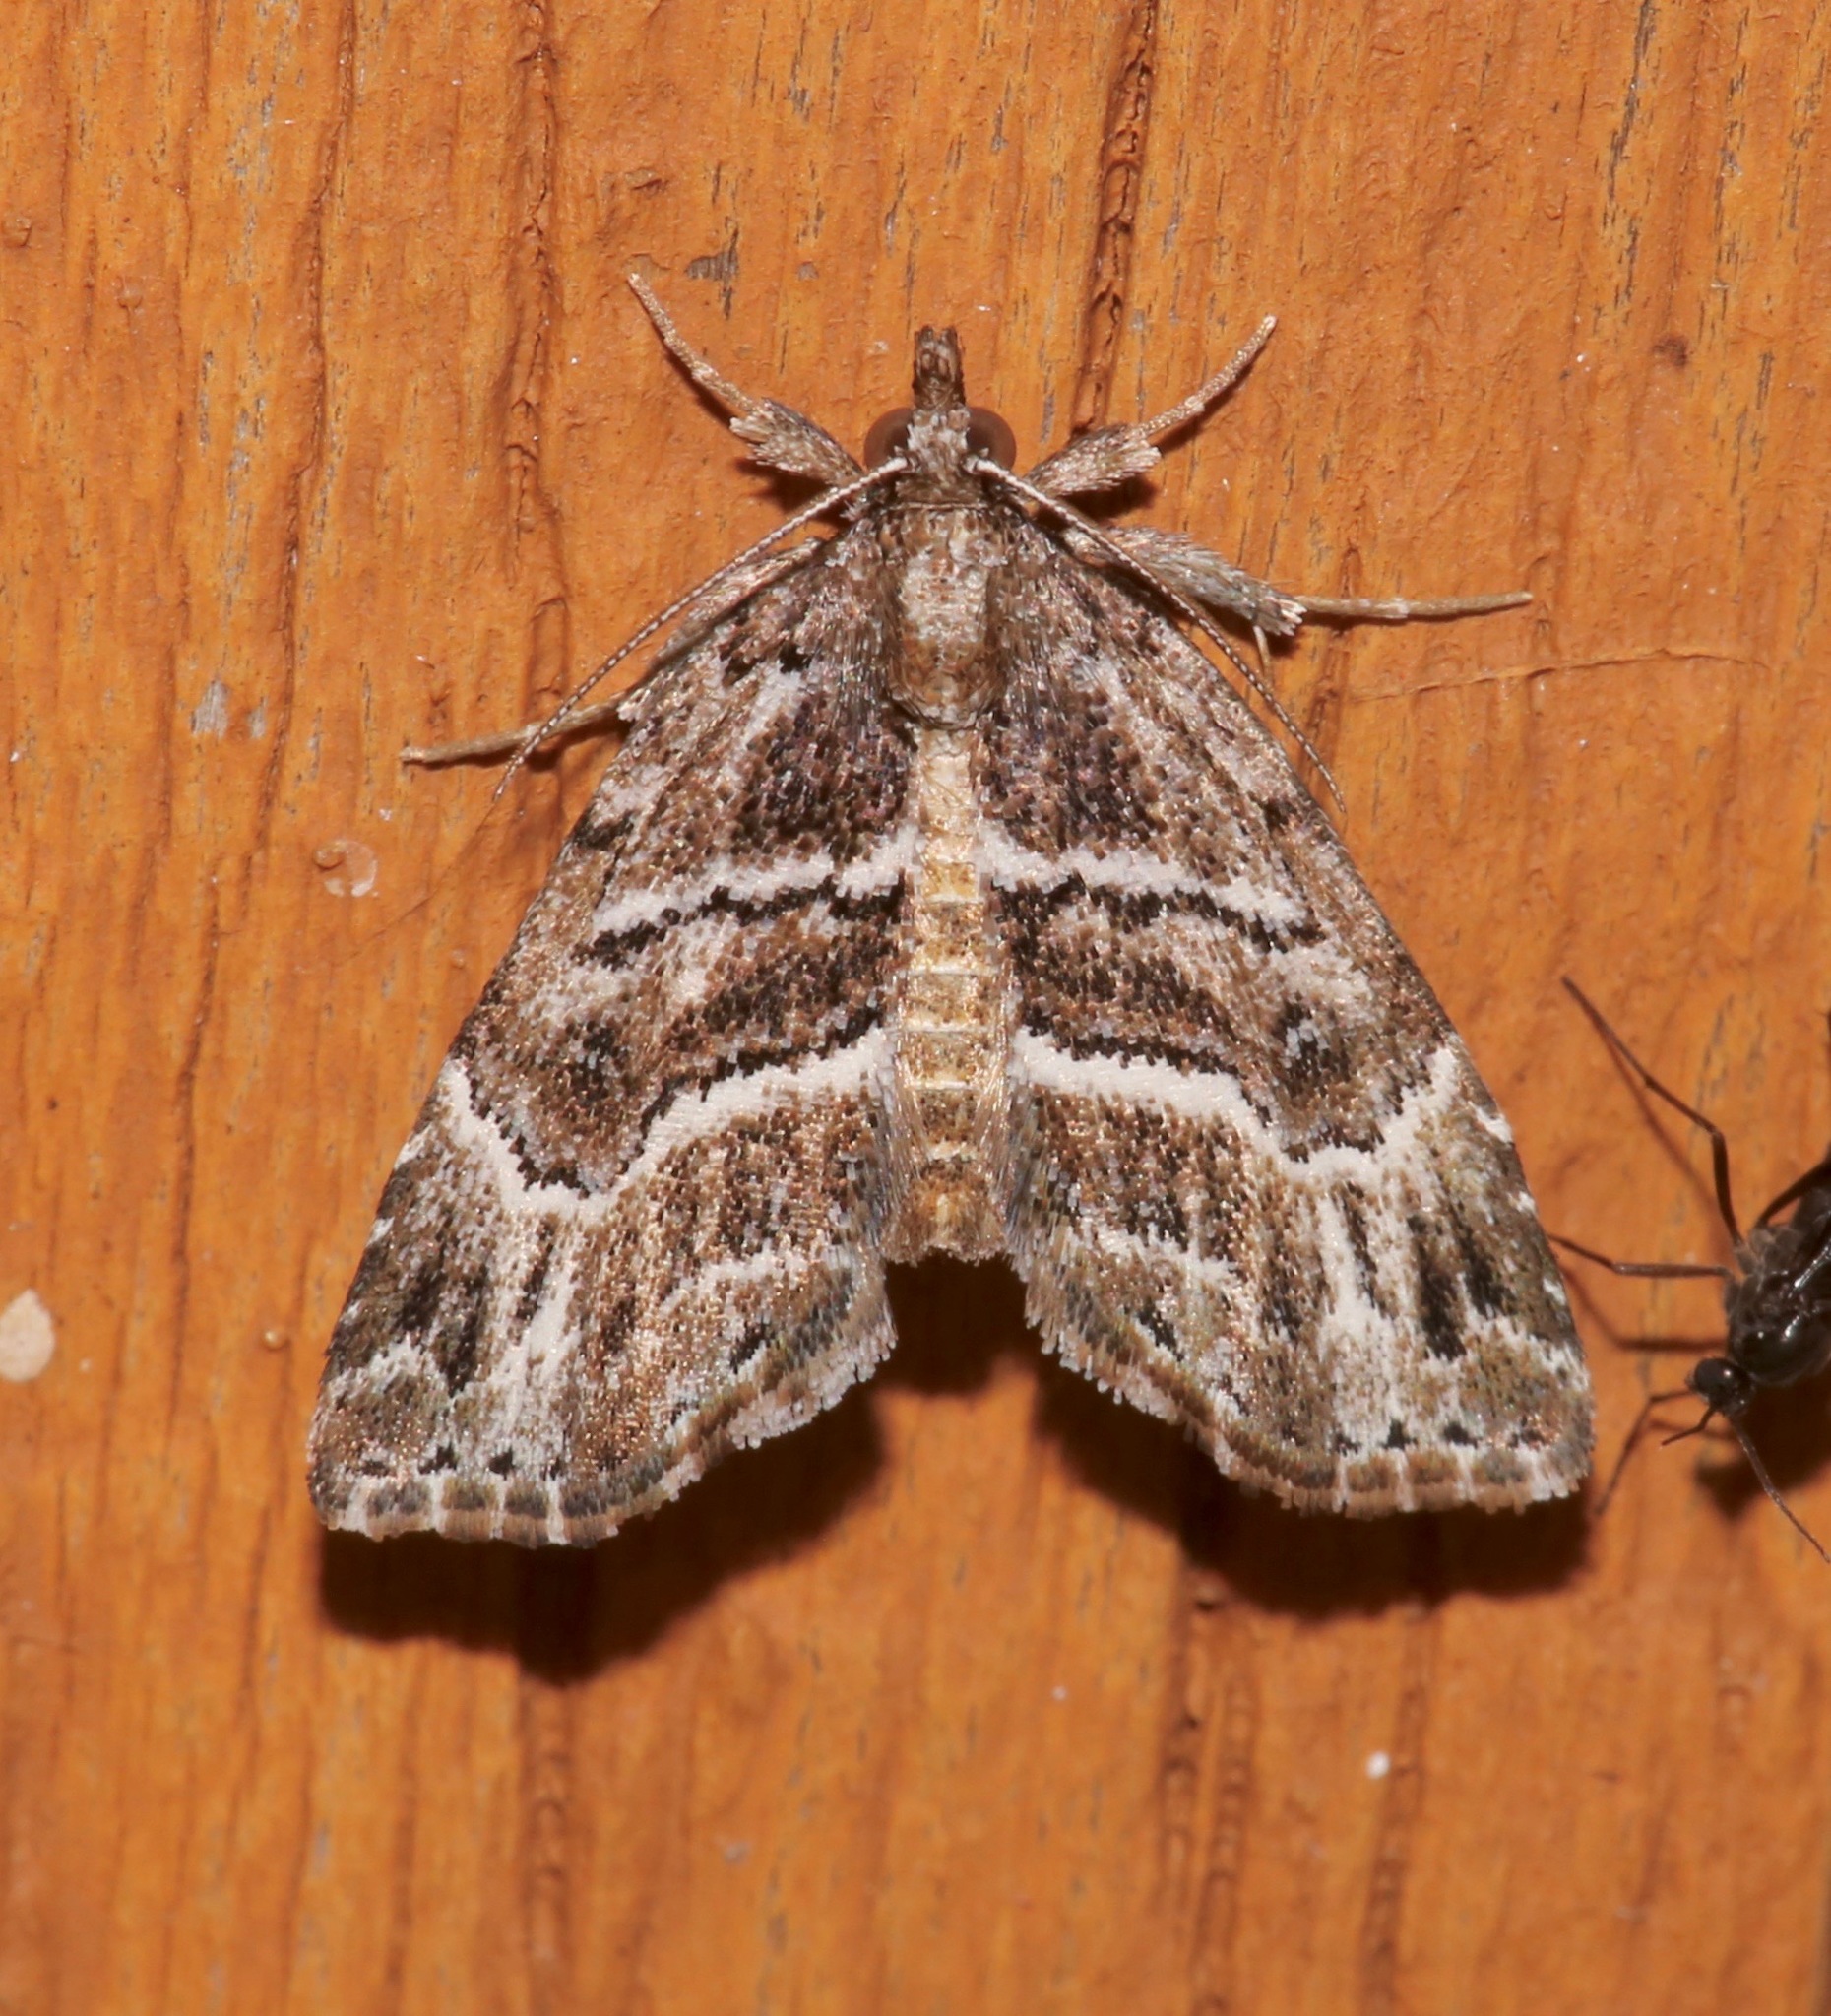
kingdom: Animalia
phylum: Arthropoda
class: Insecta
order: Lepidoptera
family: Erebidae
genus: Cutina
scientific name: Cutina arcuata
